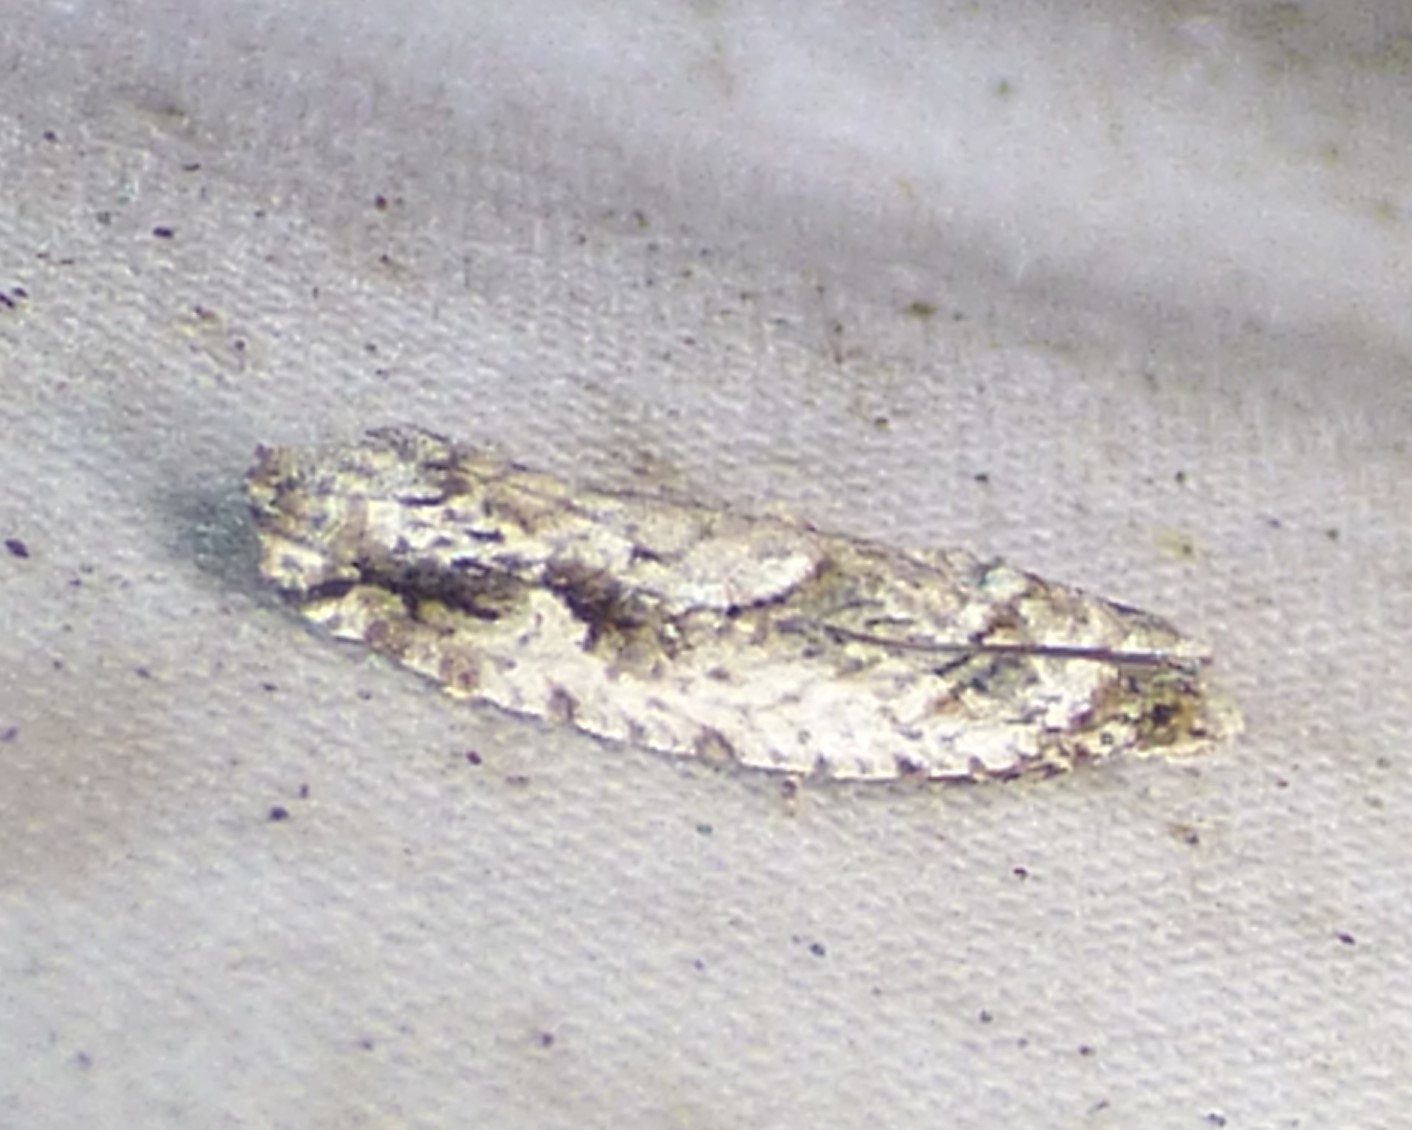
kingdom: Animalia
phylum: Arthropoda
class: Insecta
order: Lepidoptera
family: Tortricidae
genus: Gretchena
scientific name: Gretchena bolliana
